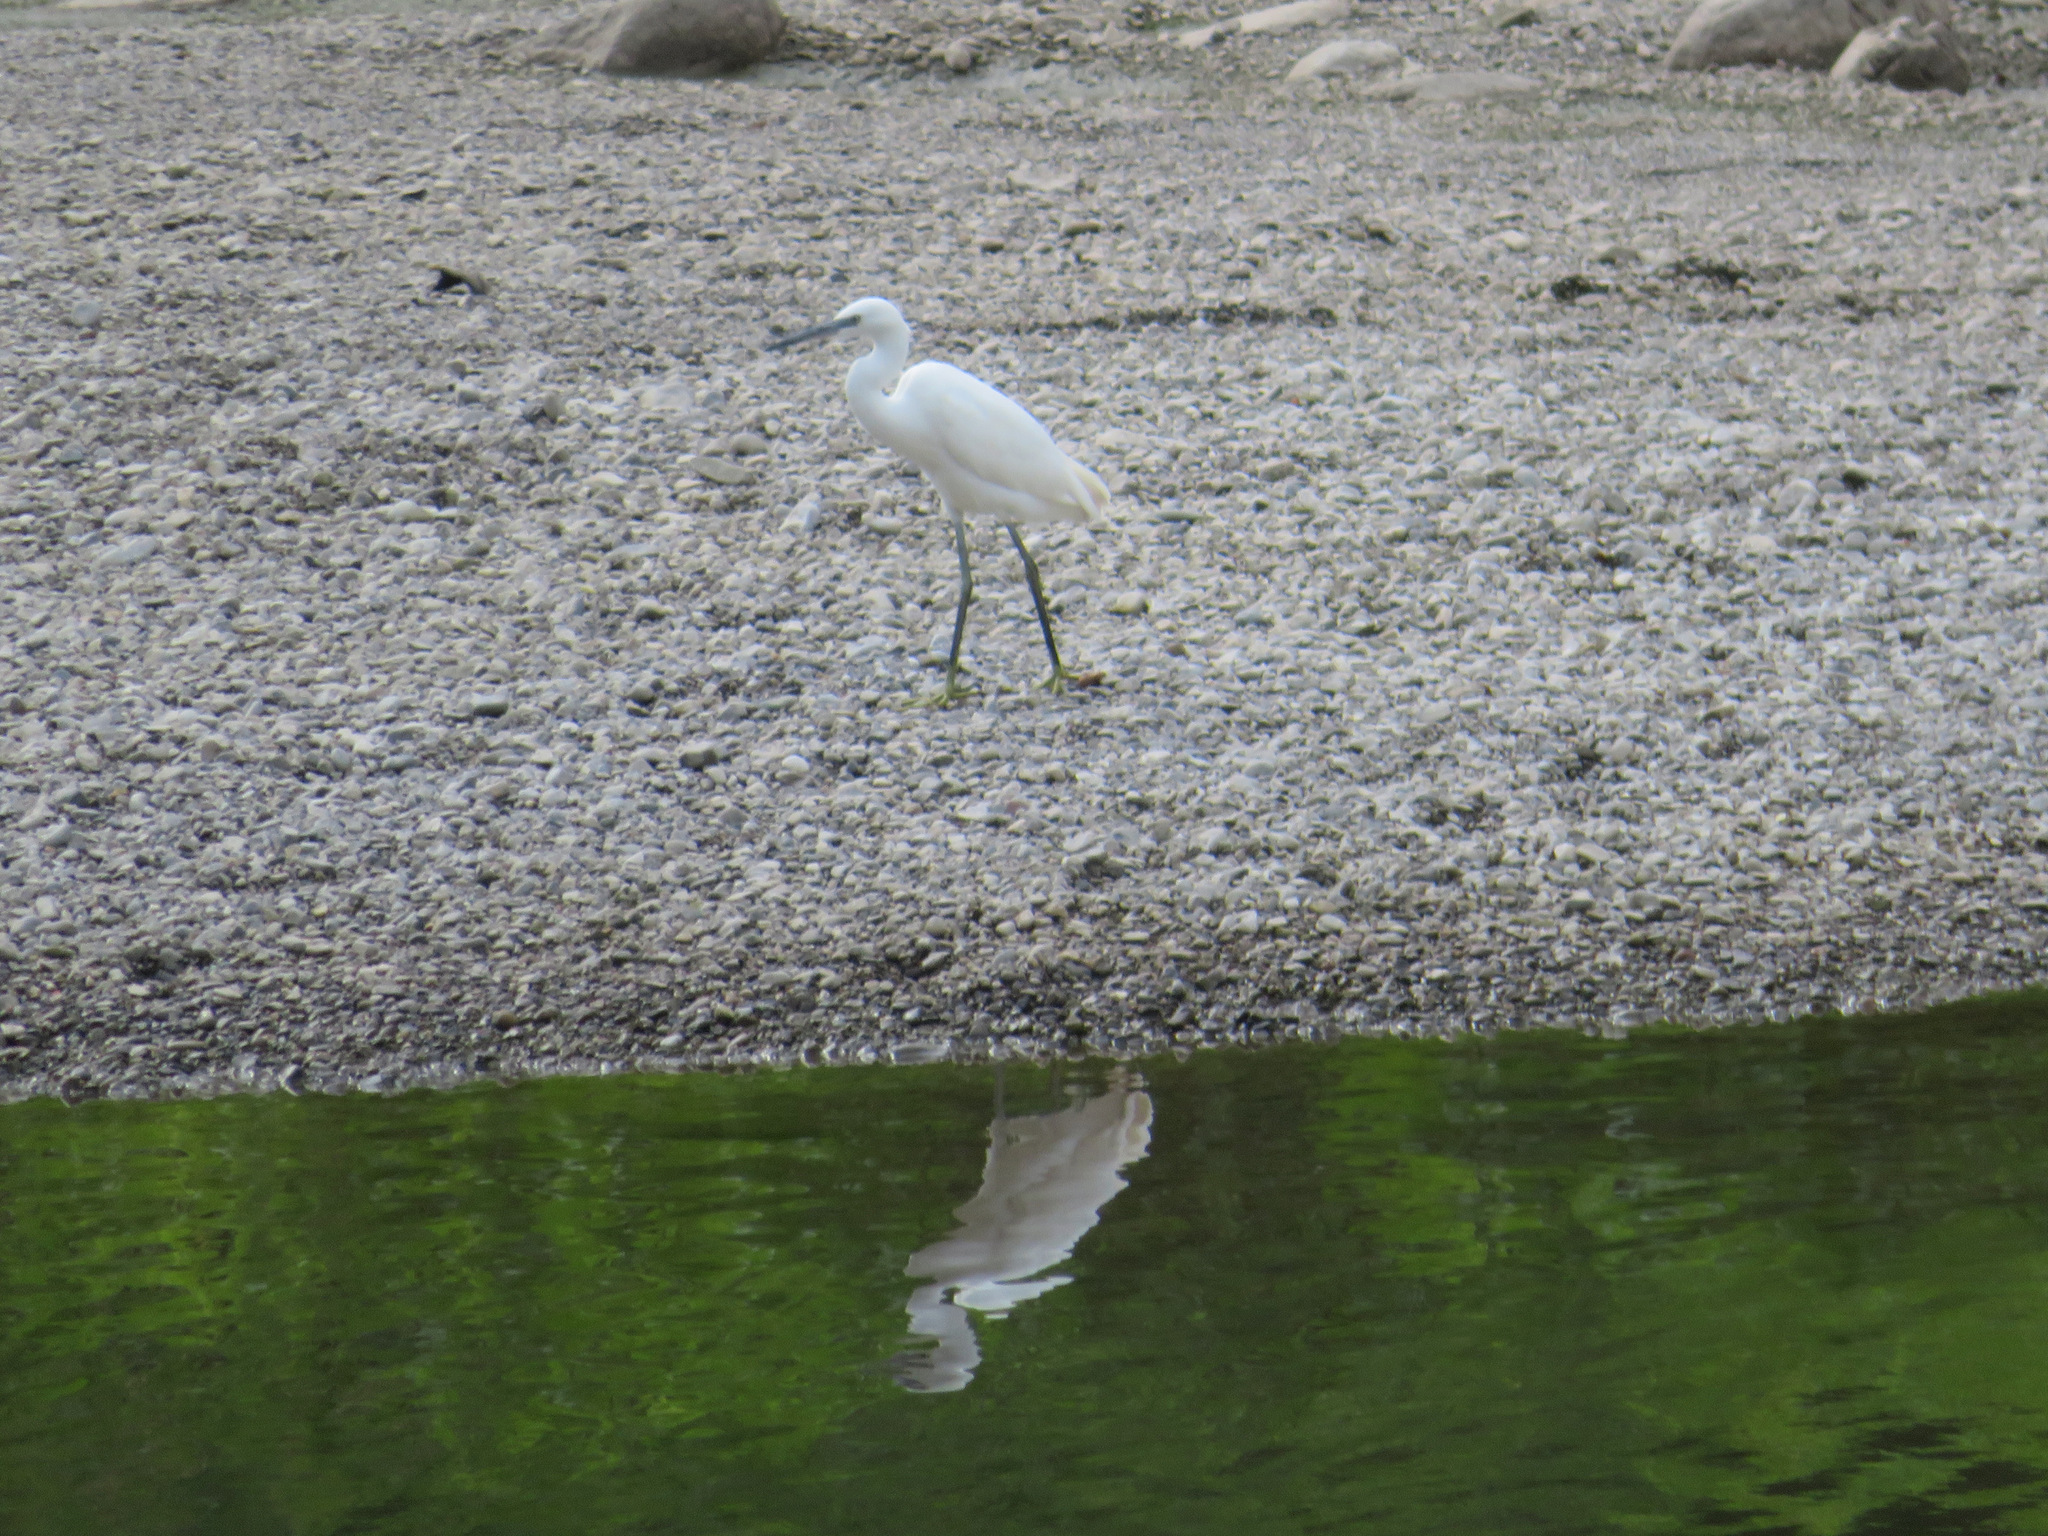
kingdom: Animalia
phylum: Chordata
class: Aves
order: Pelecaniformes
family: Ardeidae
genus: Egretta
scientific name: Egretta garzetta
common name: Little egret
